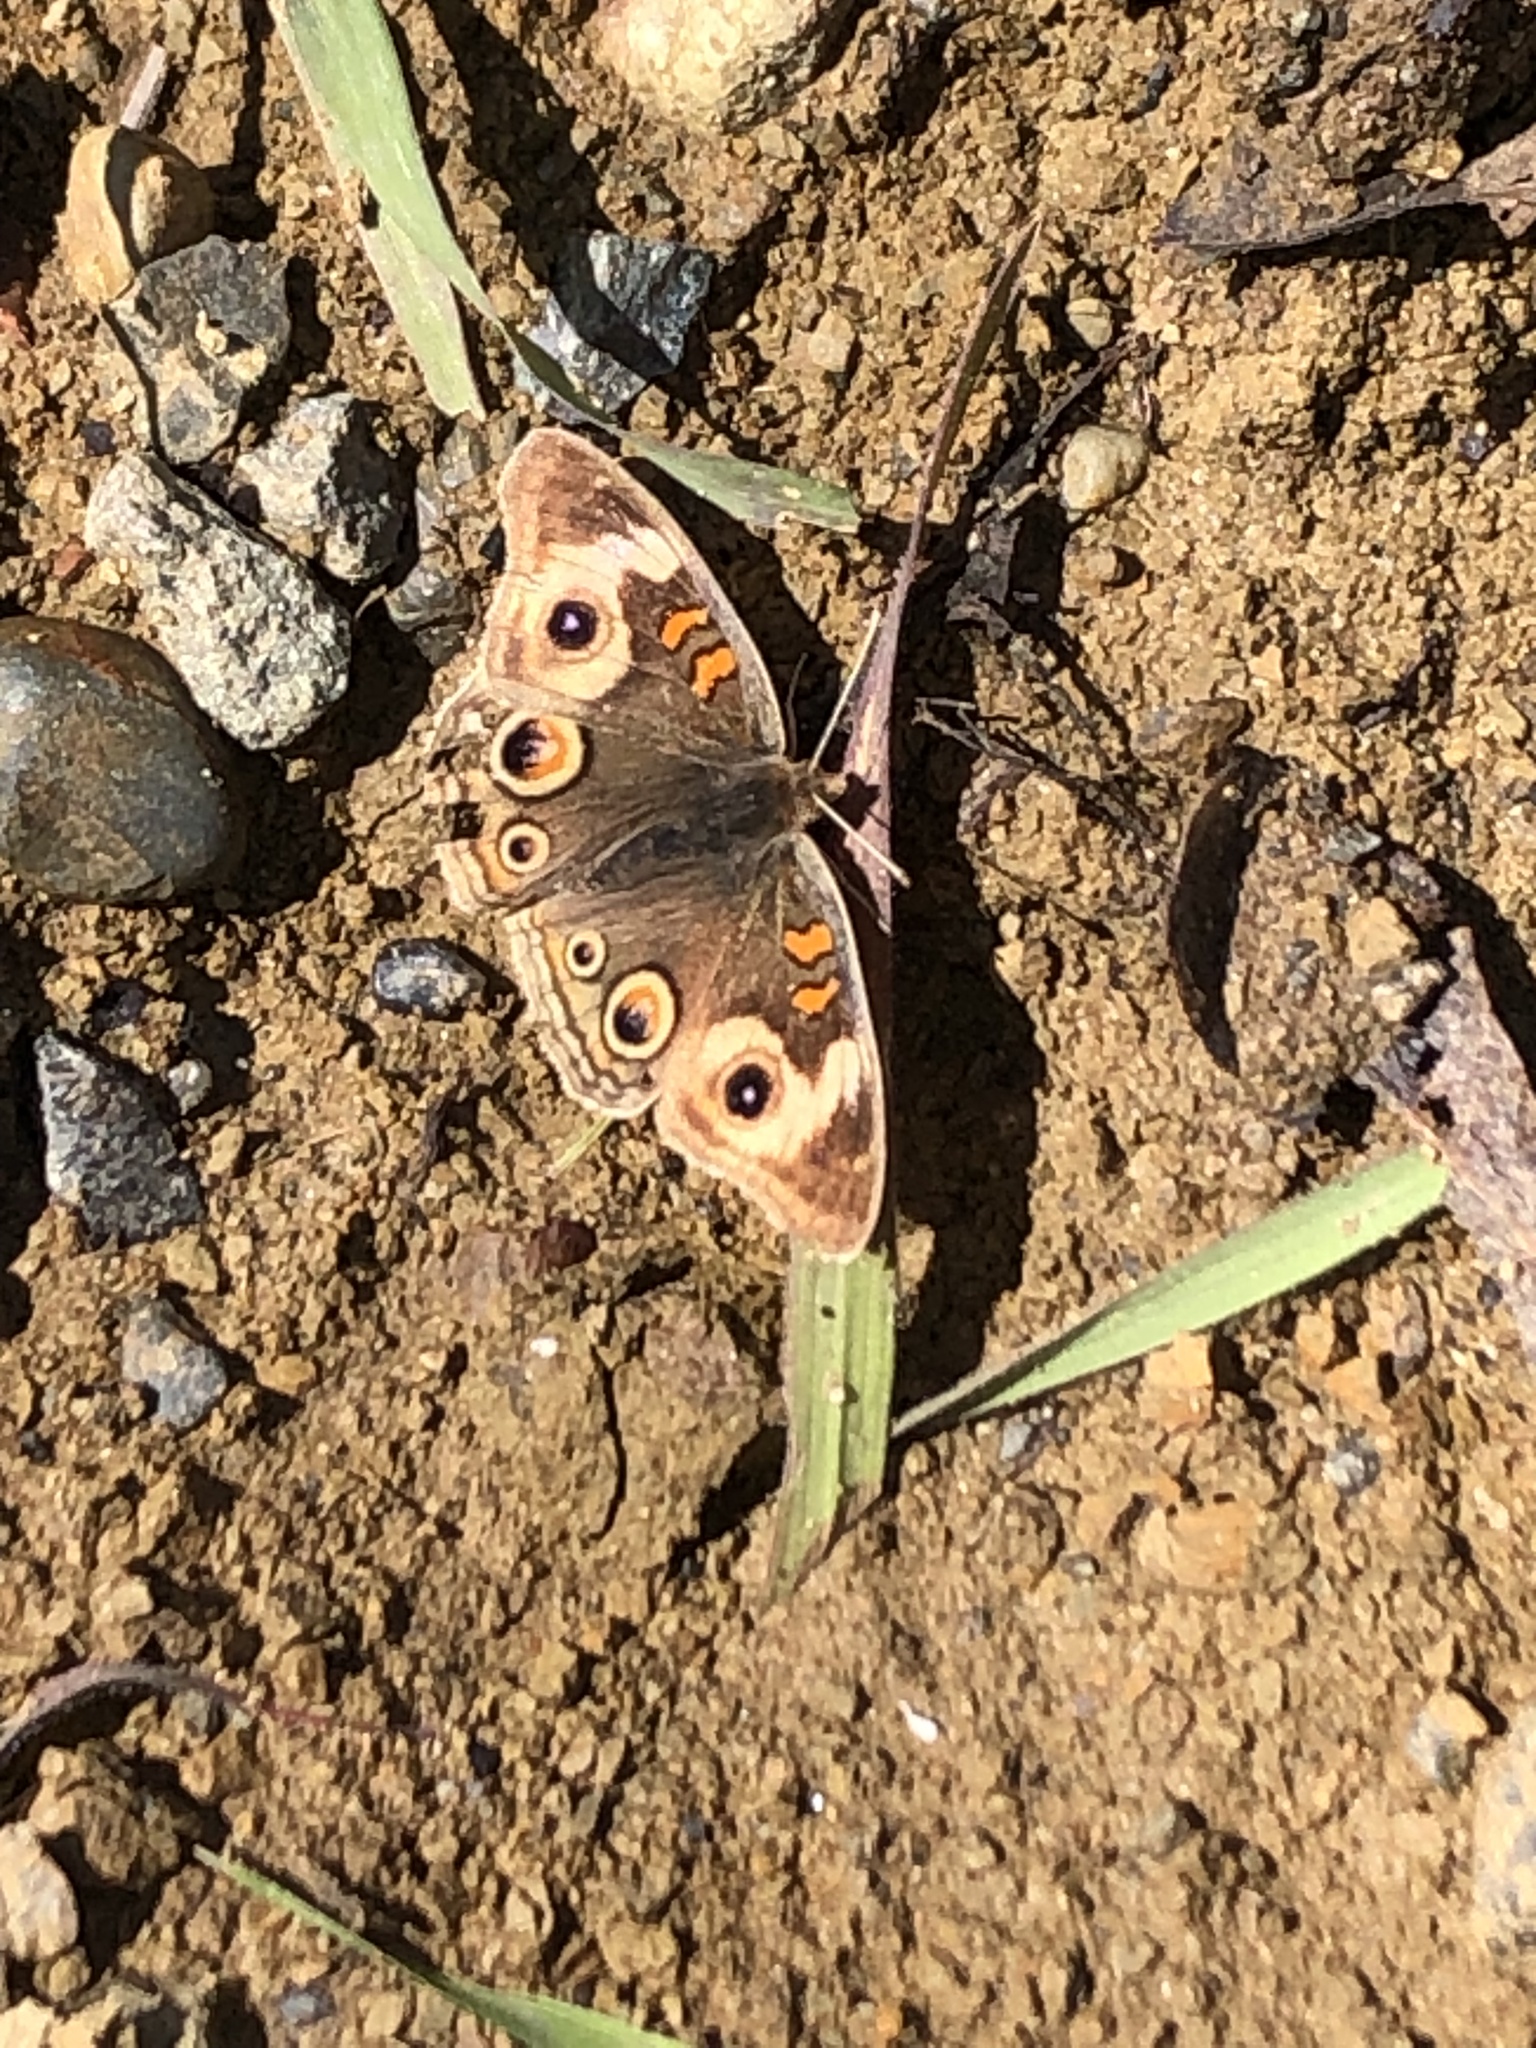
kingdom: Animalia
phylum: Arthropoda
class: Insecta
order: Lepidoptera
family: Nymphalidae
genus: Junonia
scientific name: Junonia grisea
